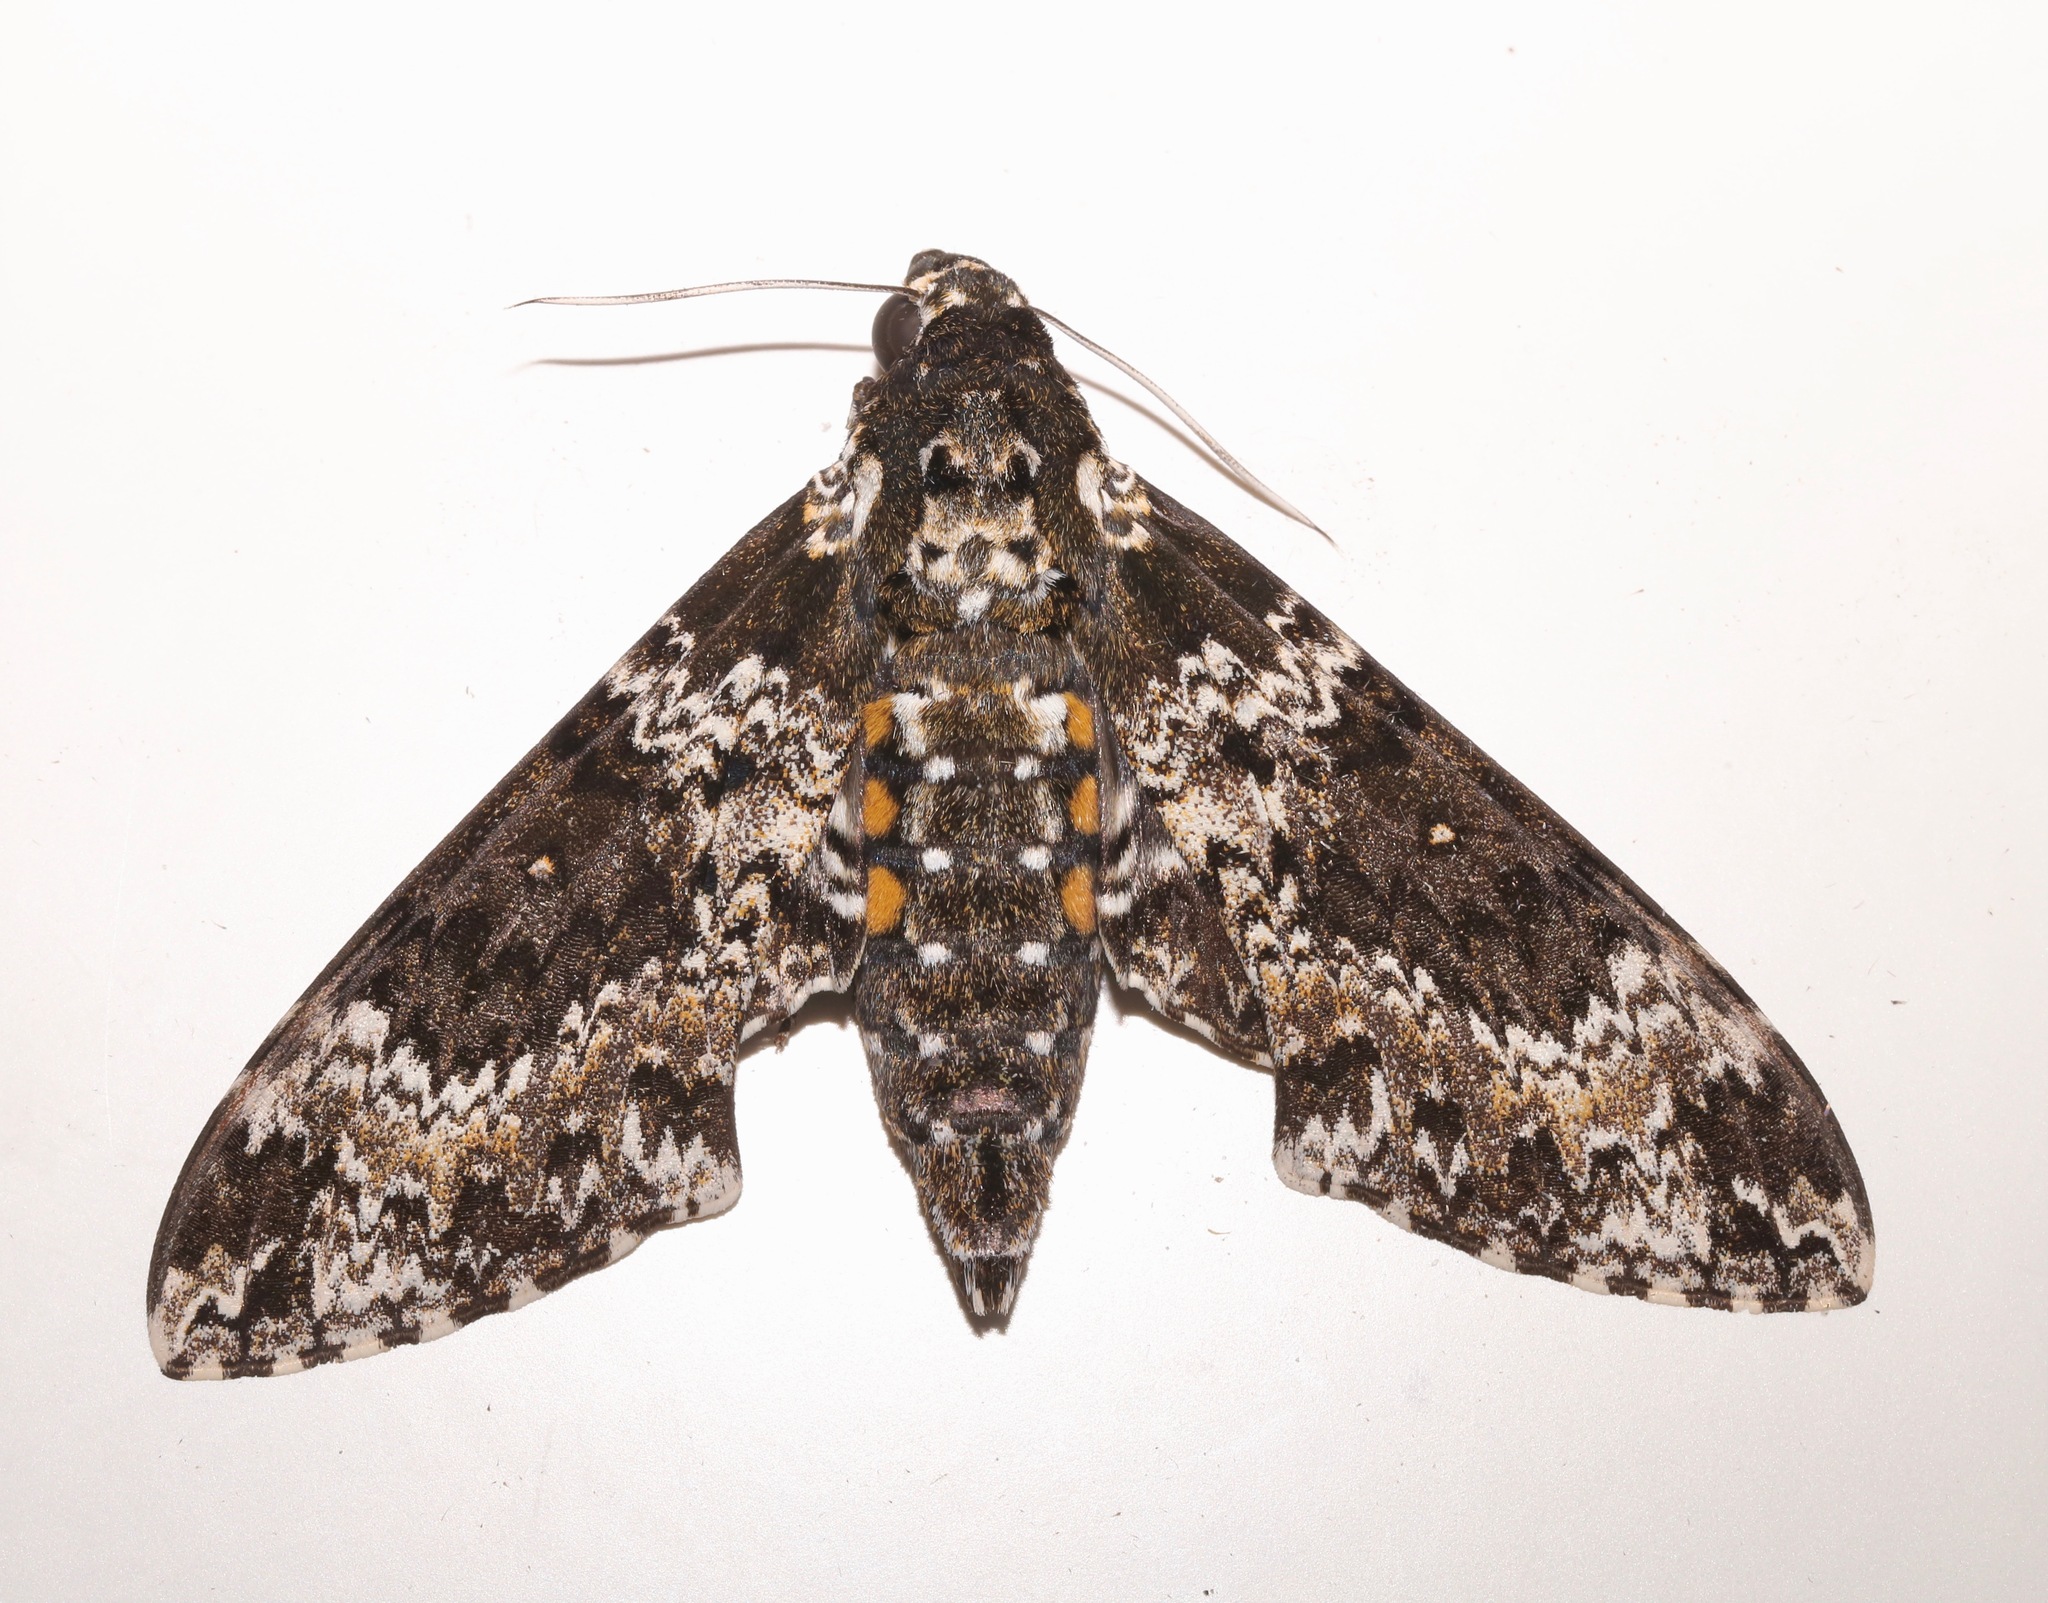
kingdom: Animalia
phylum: Arthropoda
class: Insecta
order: Lepidoptera
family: Sphingidae
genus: Manduca
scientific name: Manduca rustica
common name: Rustic sphinx
